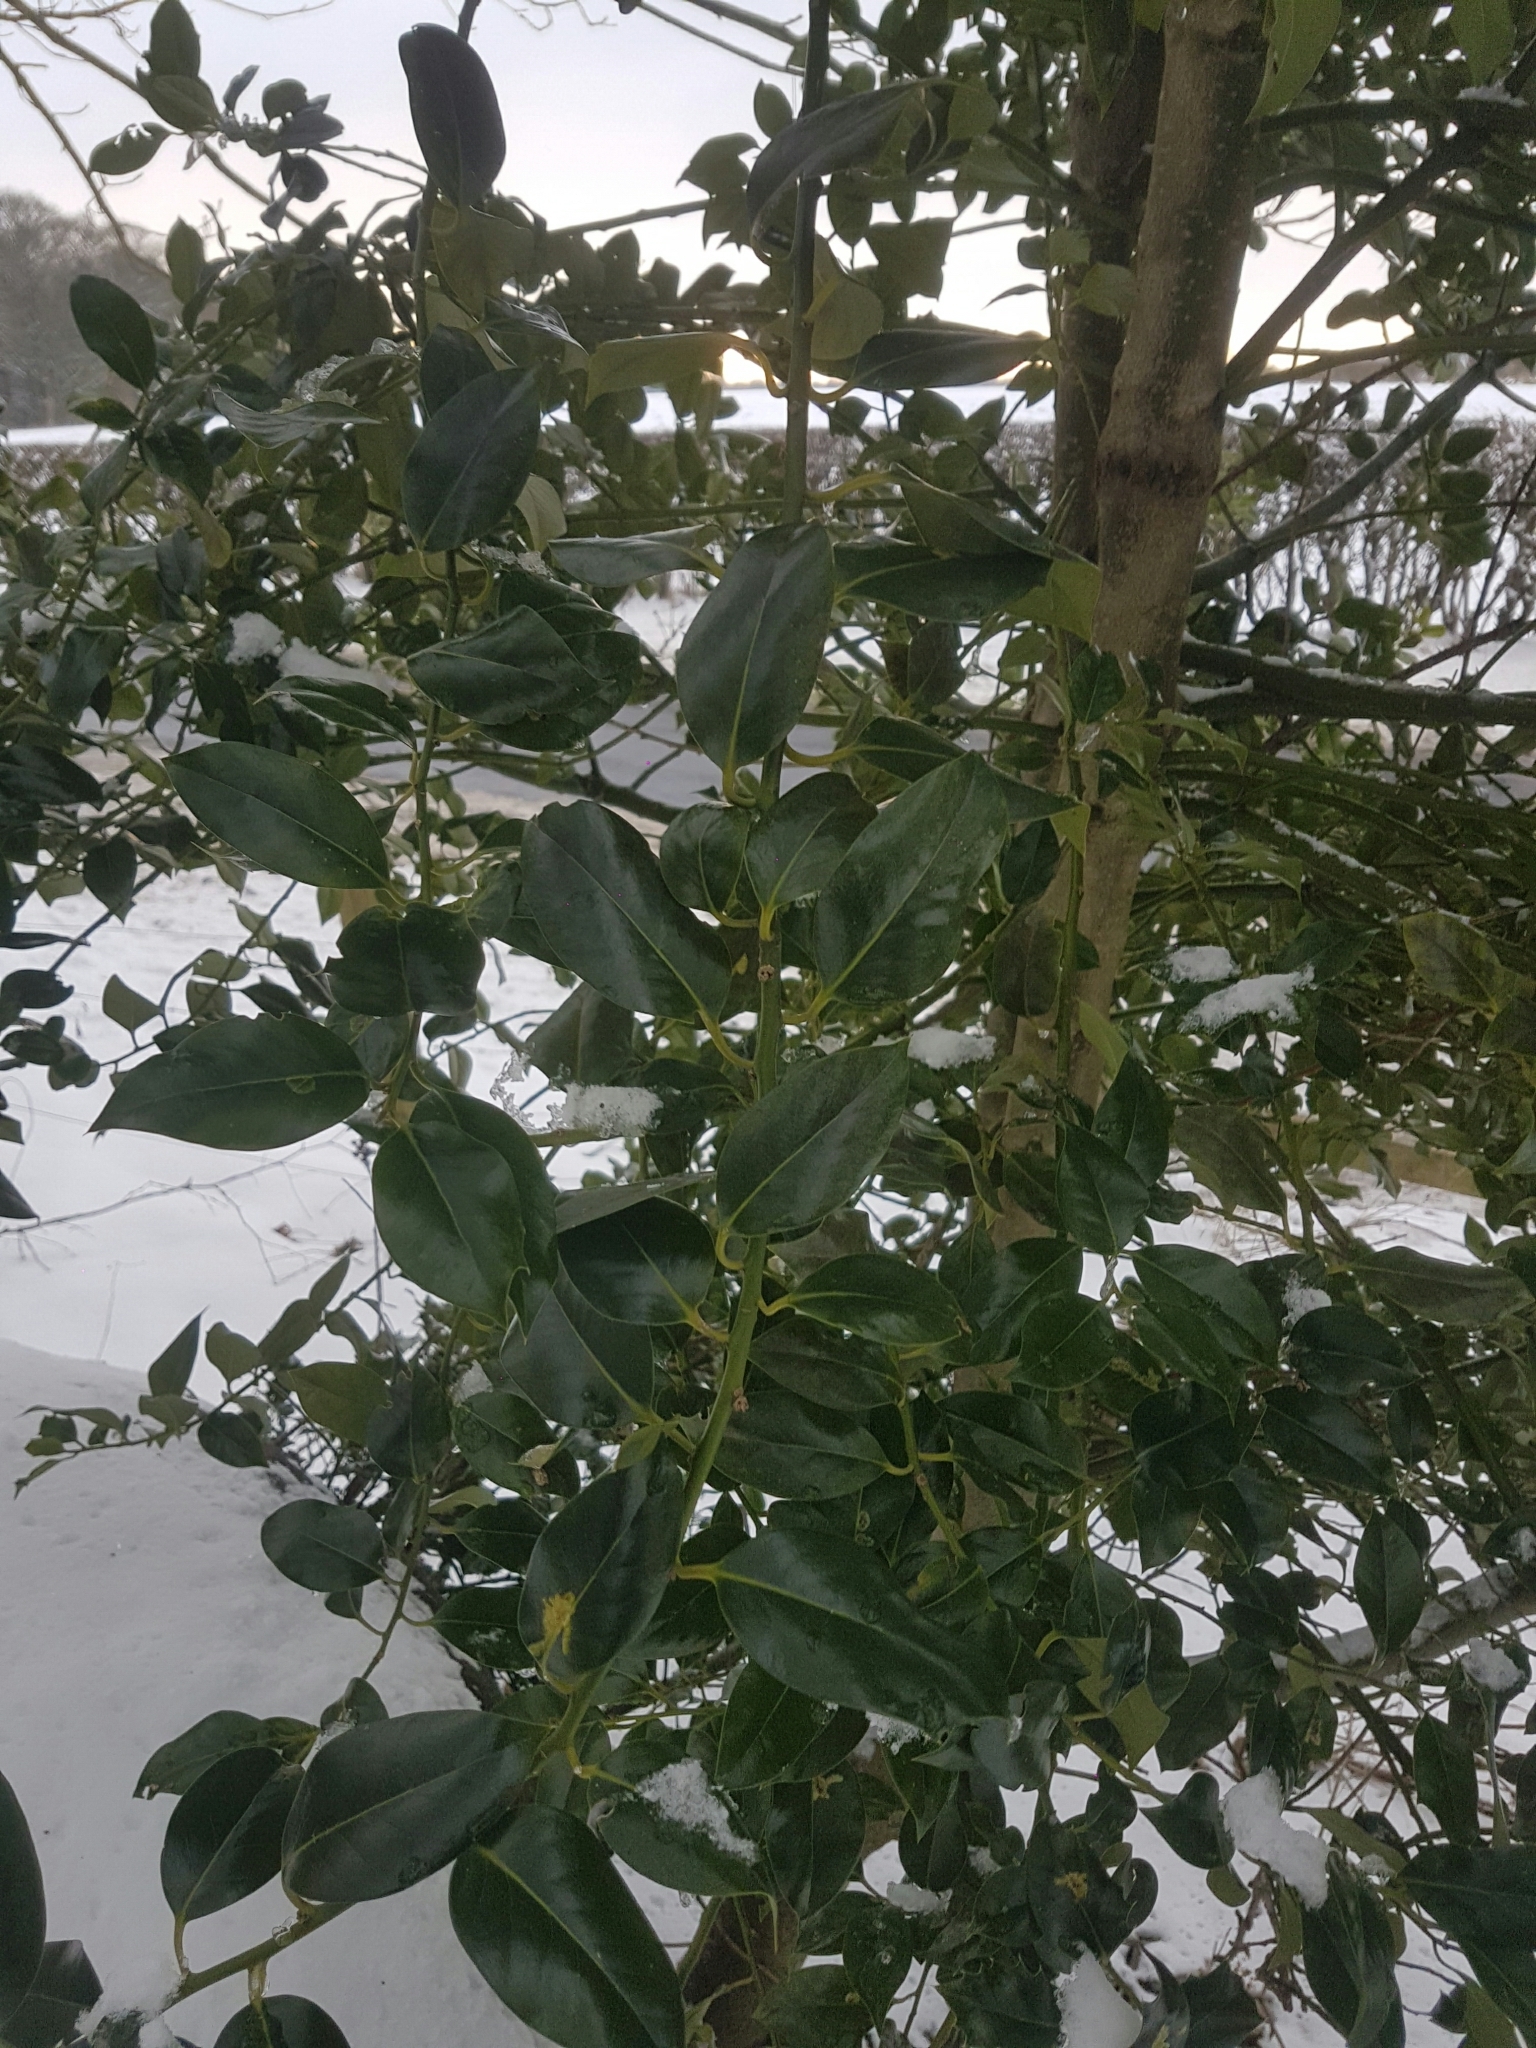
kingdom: Plantae
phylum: Tracheophyta
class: Magnoliopsida
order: Aquifoliales
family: Aquifoliaceae
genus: Ilex
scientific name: Ilex aquifolium
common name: English holly
